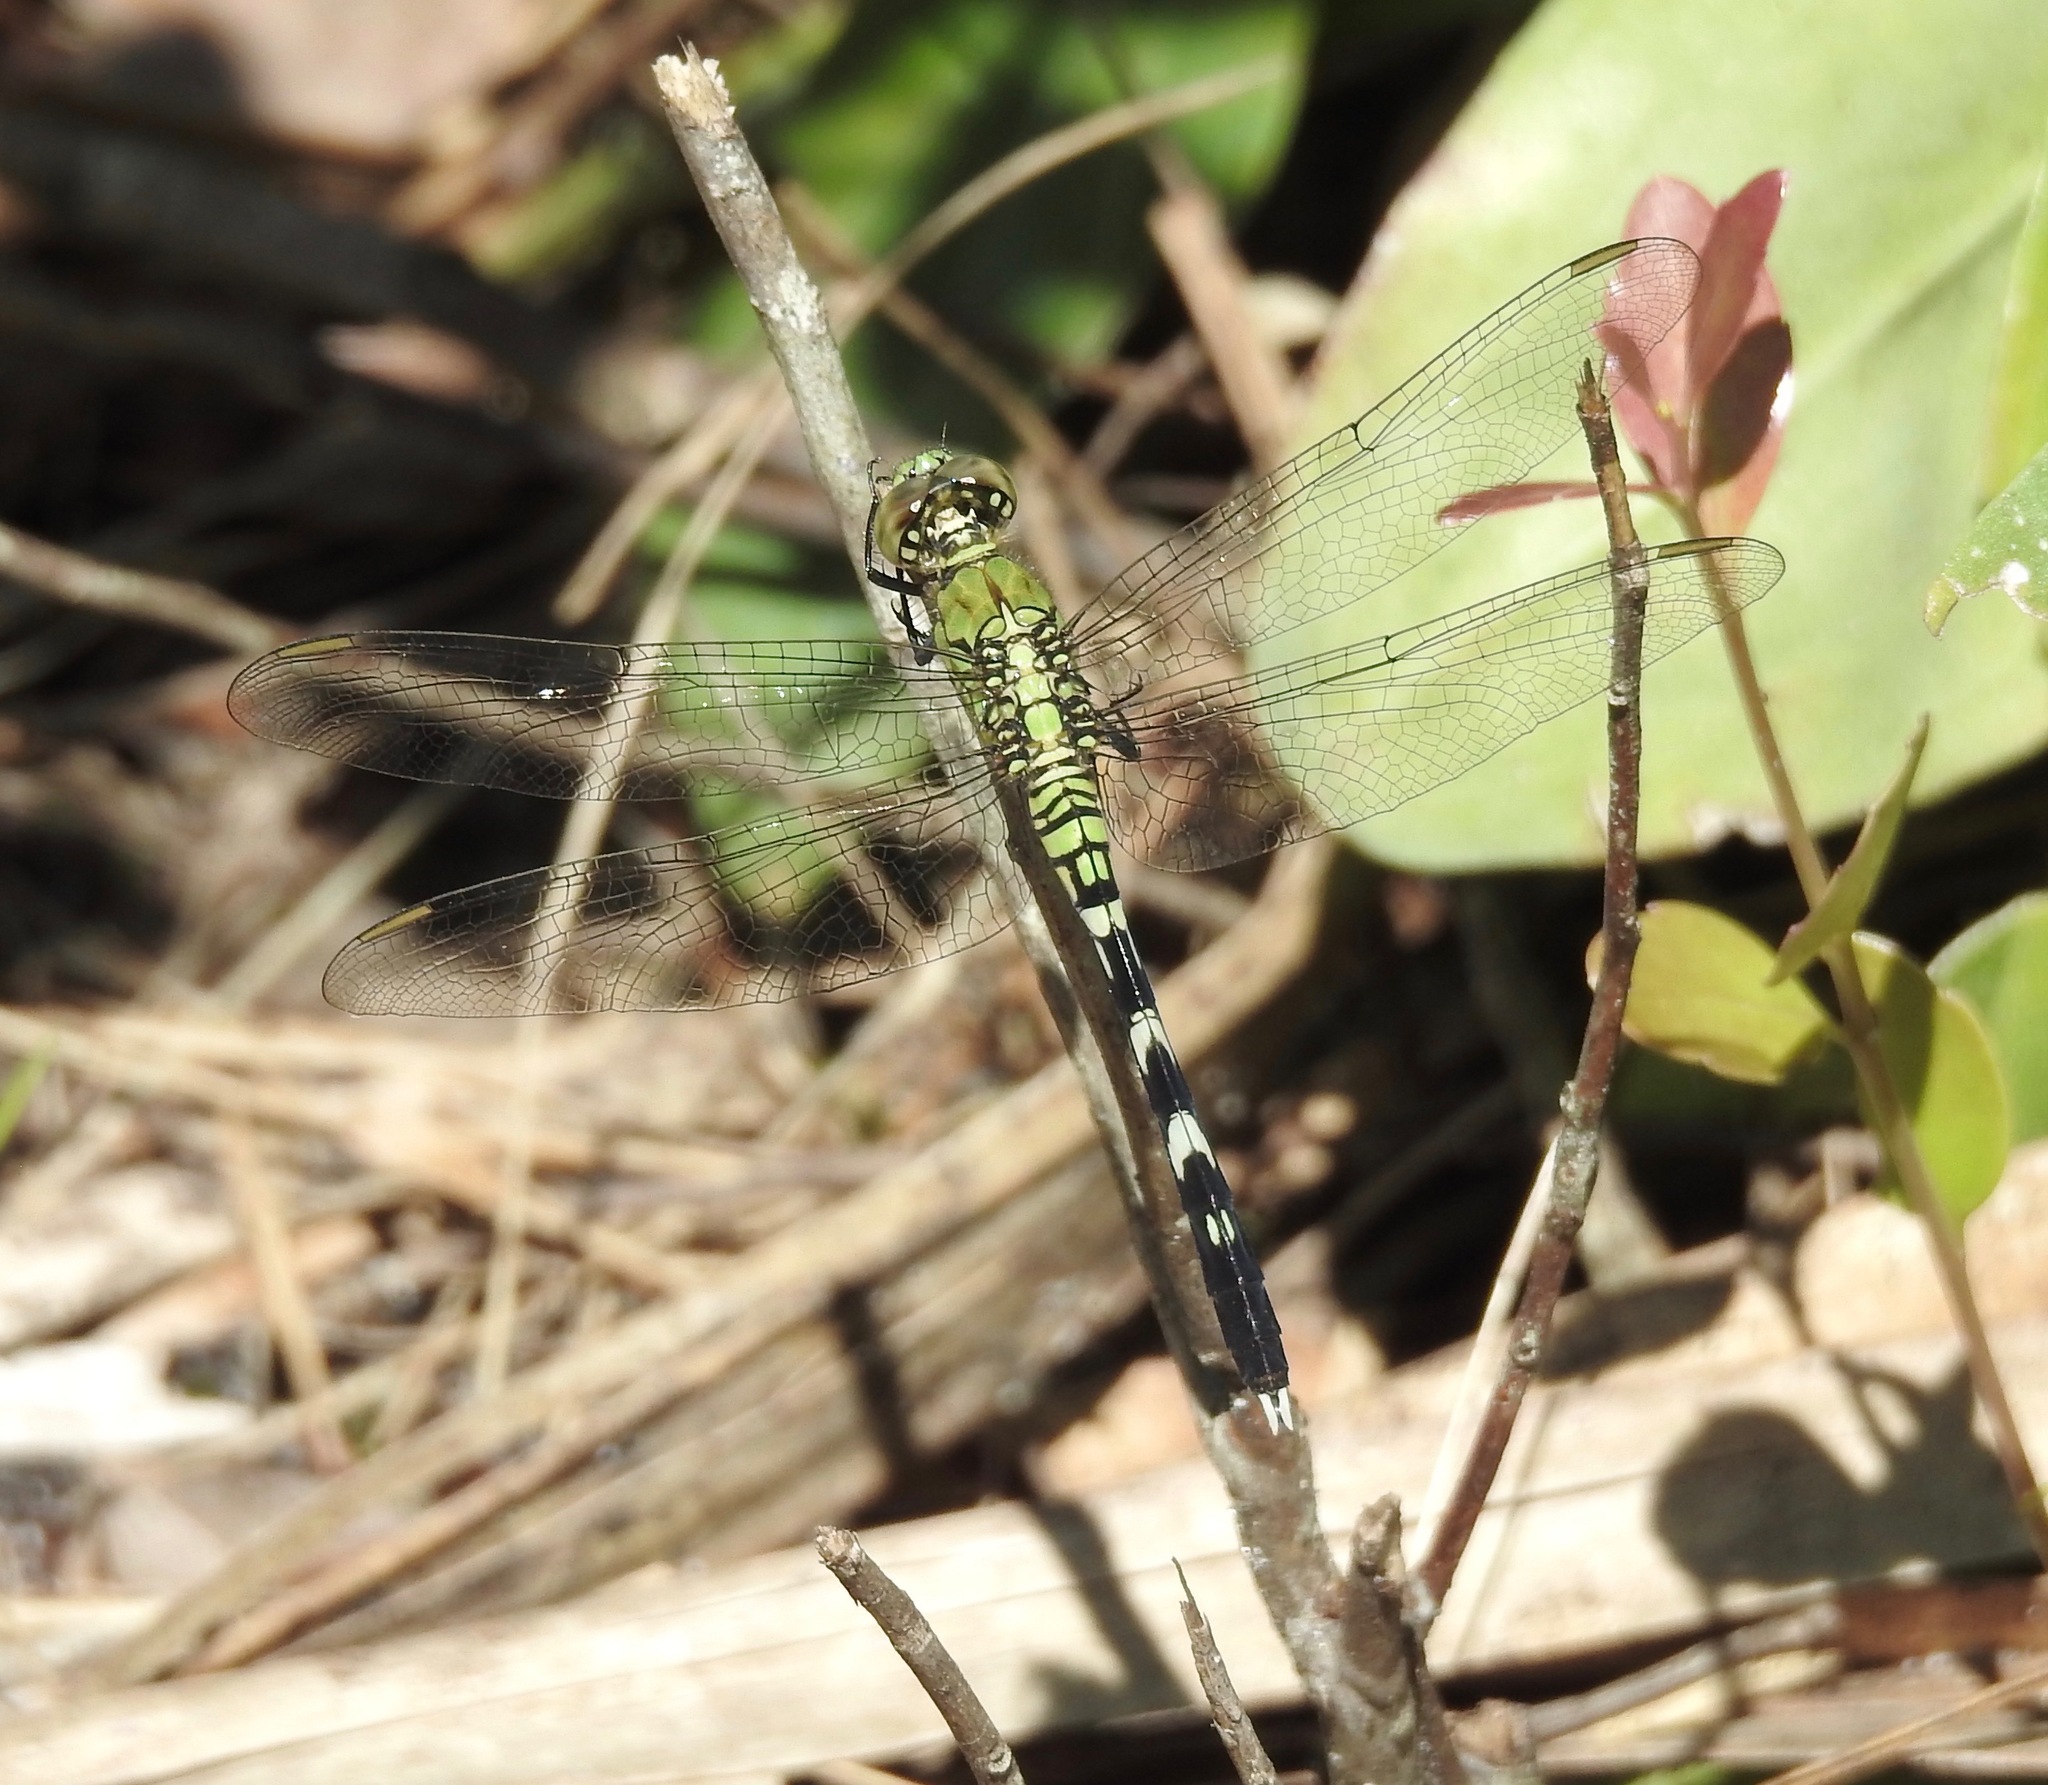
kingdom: Animalia
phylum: Arthropoda
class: Insecta
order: Odonata
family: Libellulidae
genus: Erythemis
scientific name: Erythemis simplicicollis
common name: Eastern pondhawk
